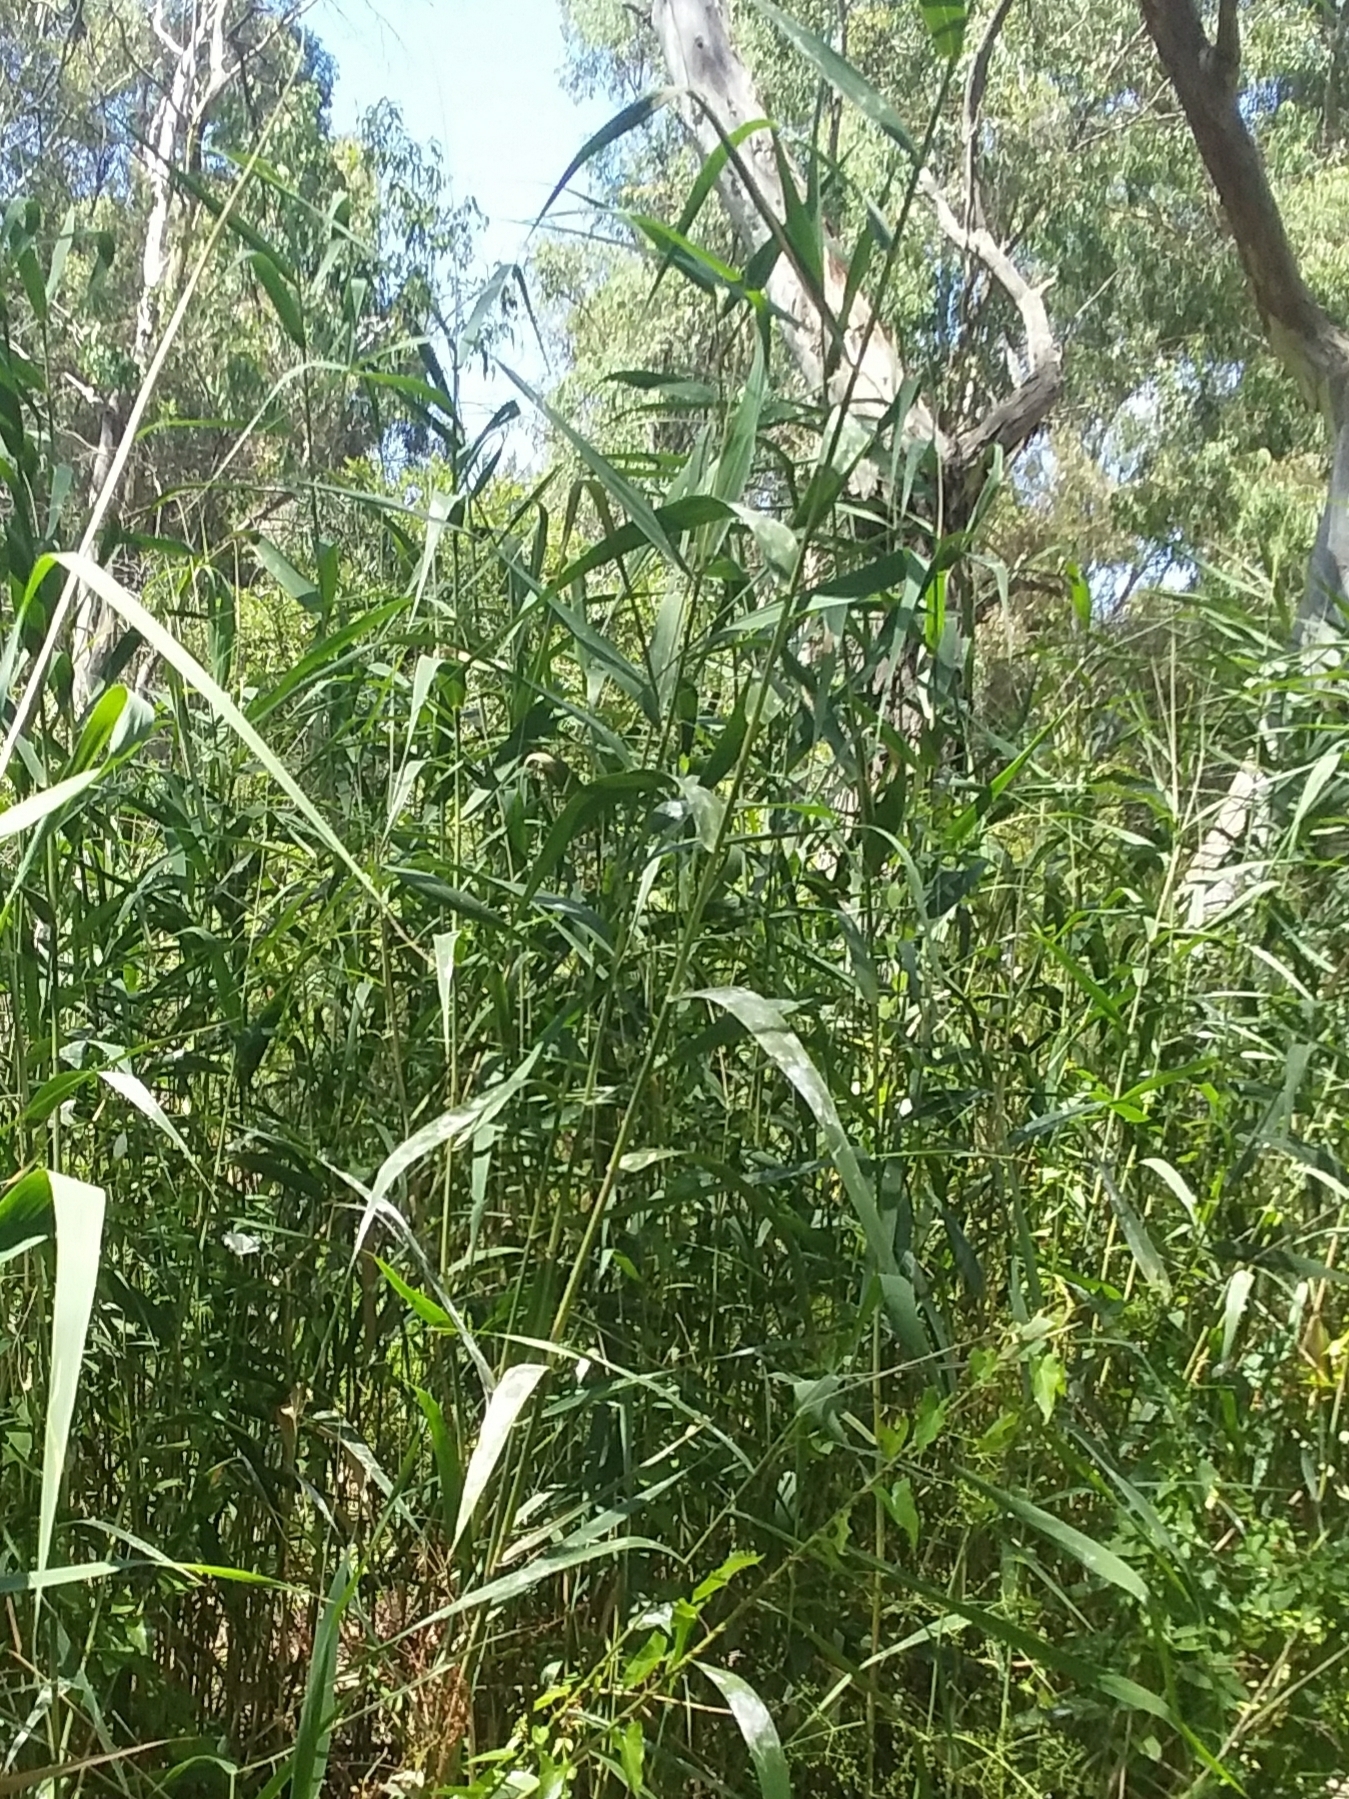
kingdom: Plantae
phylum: Tracheophyta
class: Liliopsida
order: Poales
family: Poaceae
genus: Phragmites
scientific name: Phragmites australis
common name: Common reed
